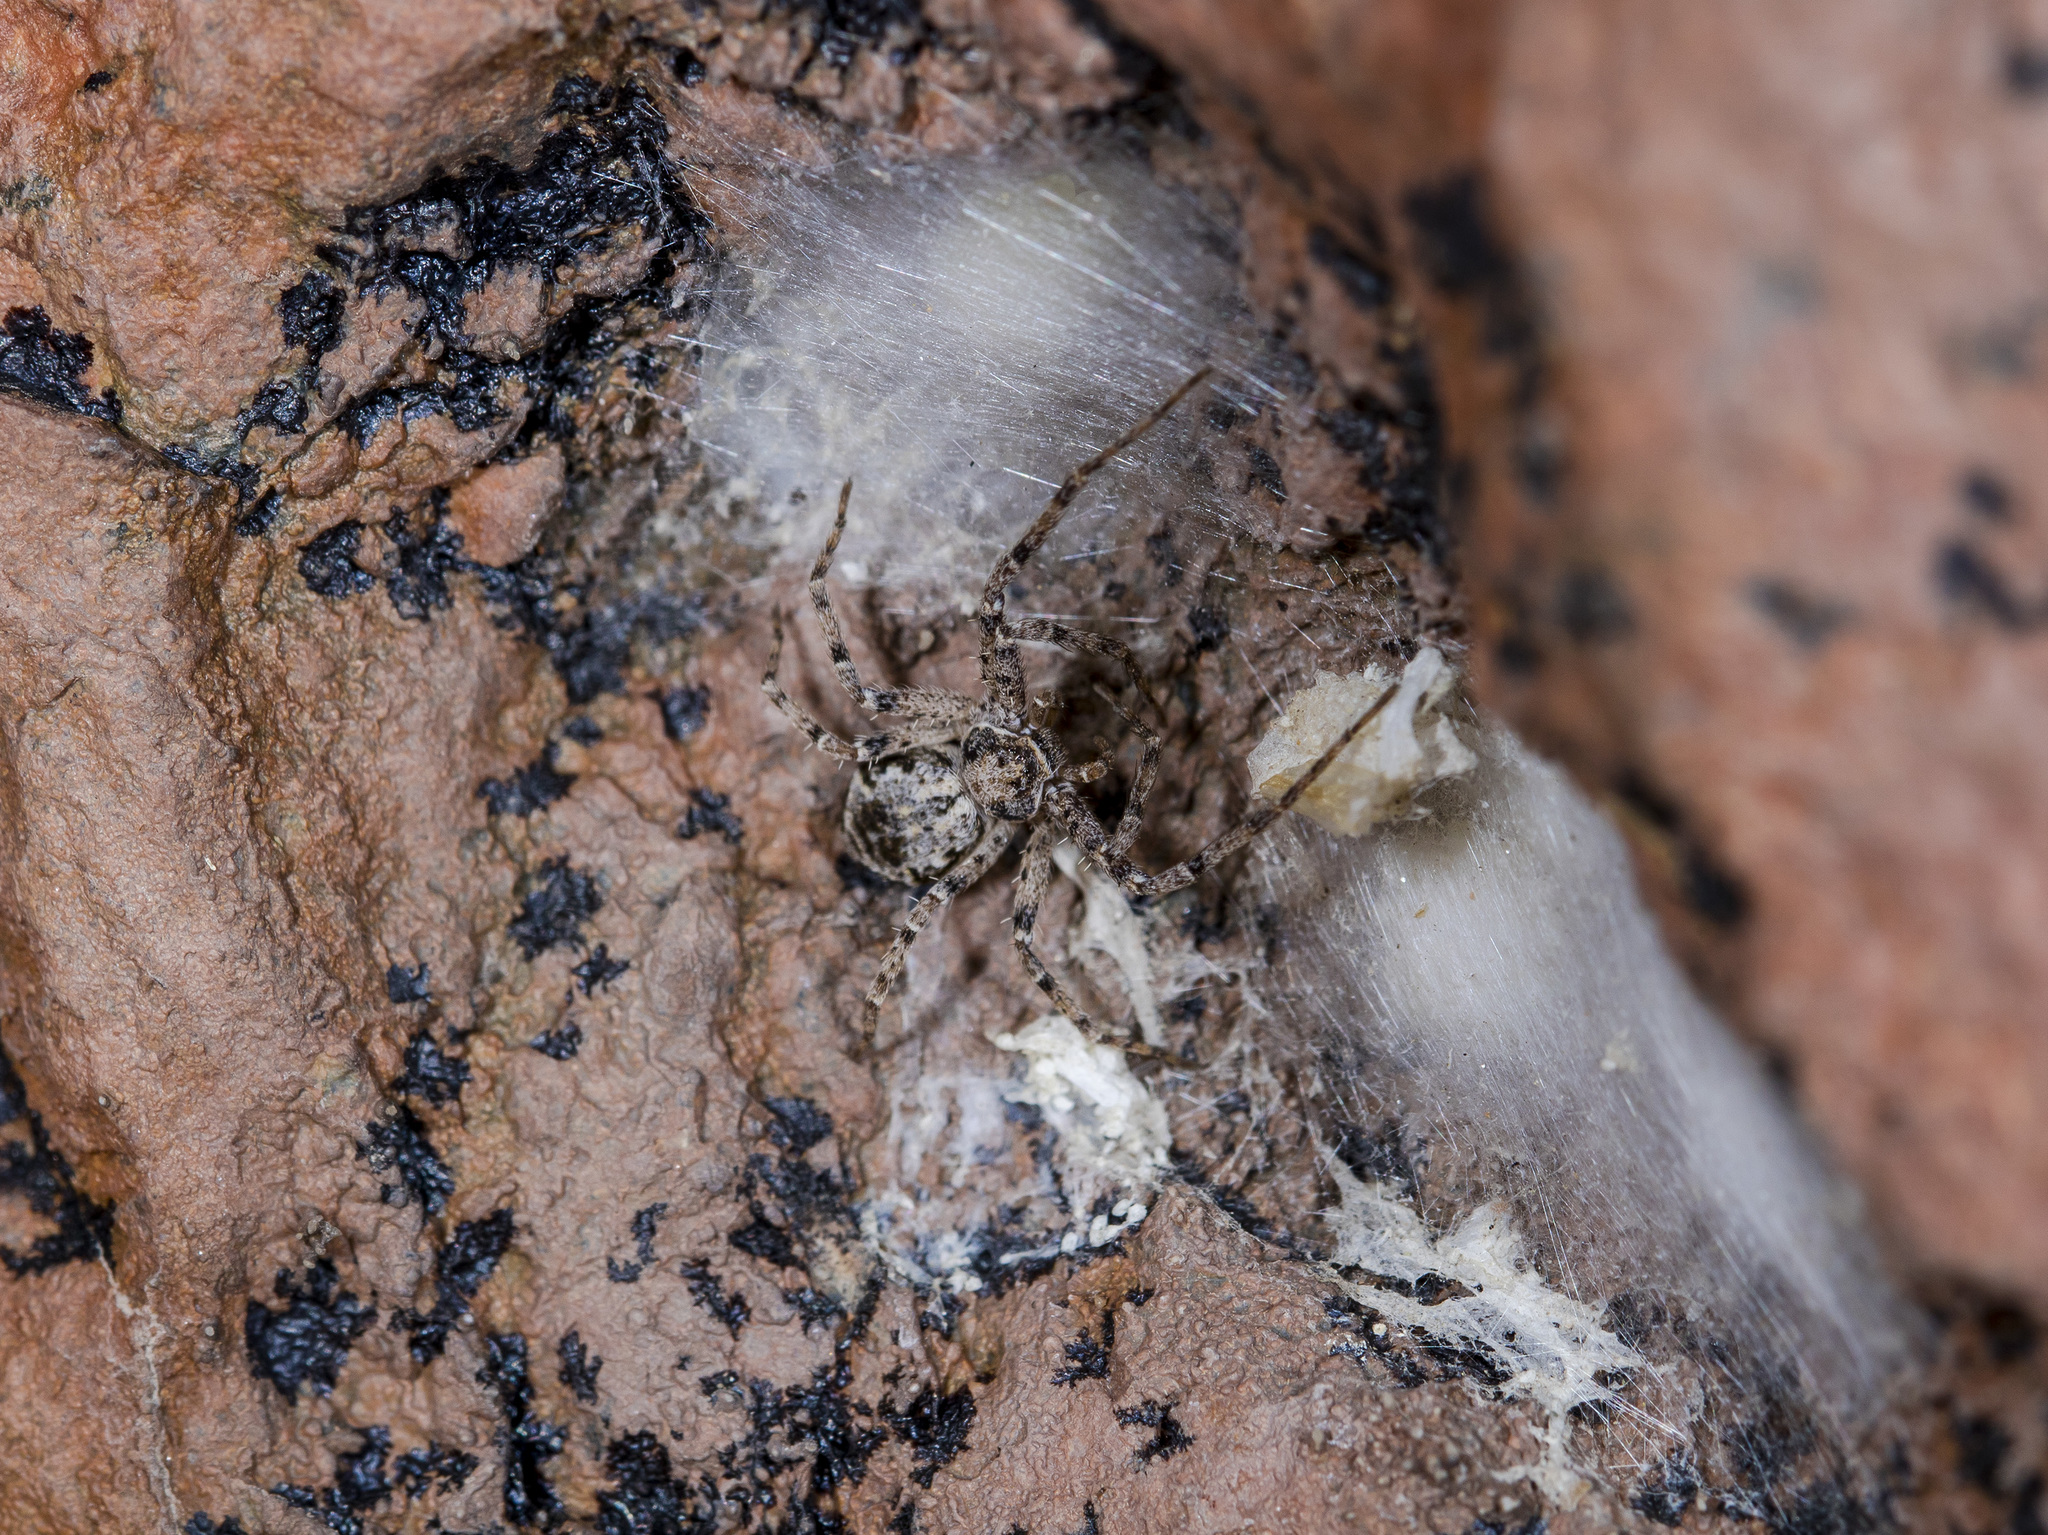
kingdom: Animalia
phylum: Arthropoda
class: Arachnida
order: Araneae
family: Philodromidae
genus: Rhysodromus
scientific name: Rhysodromus pictus
